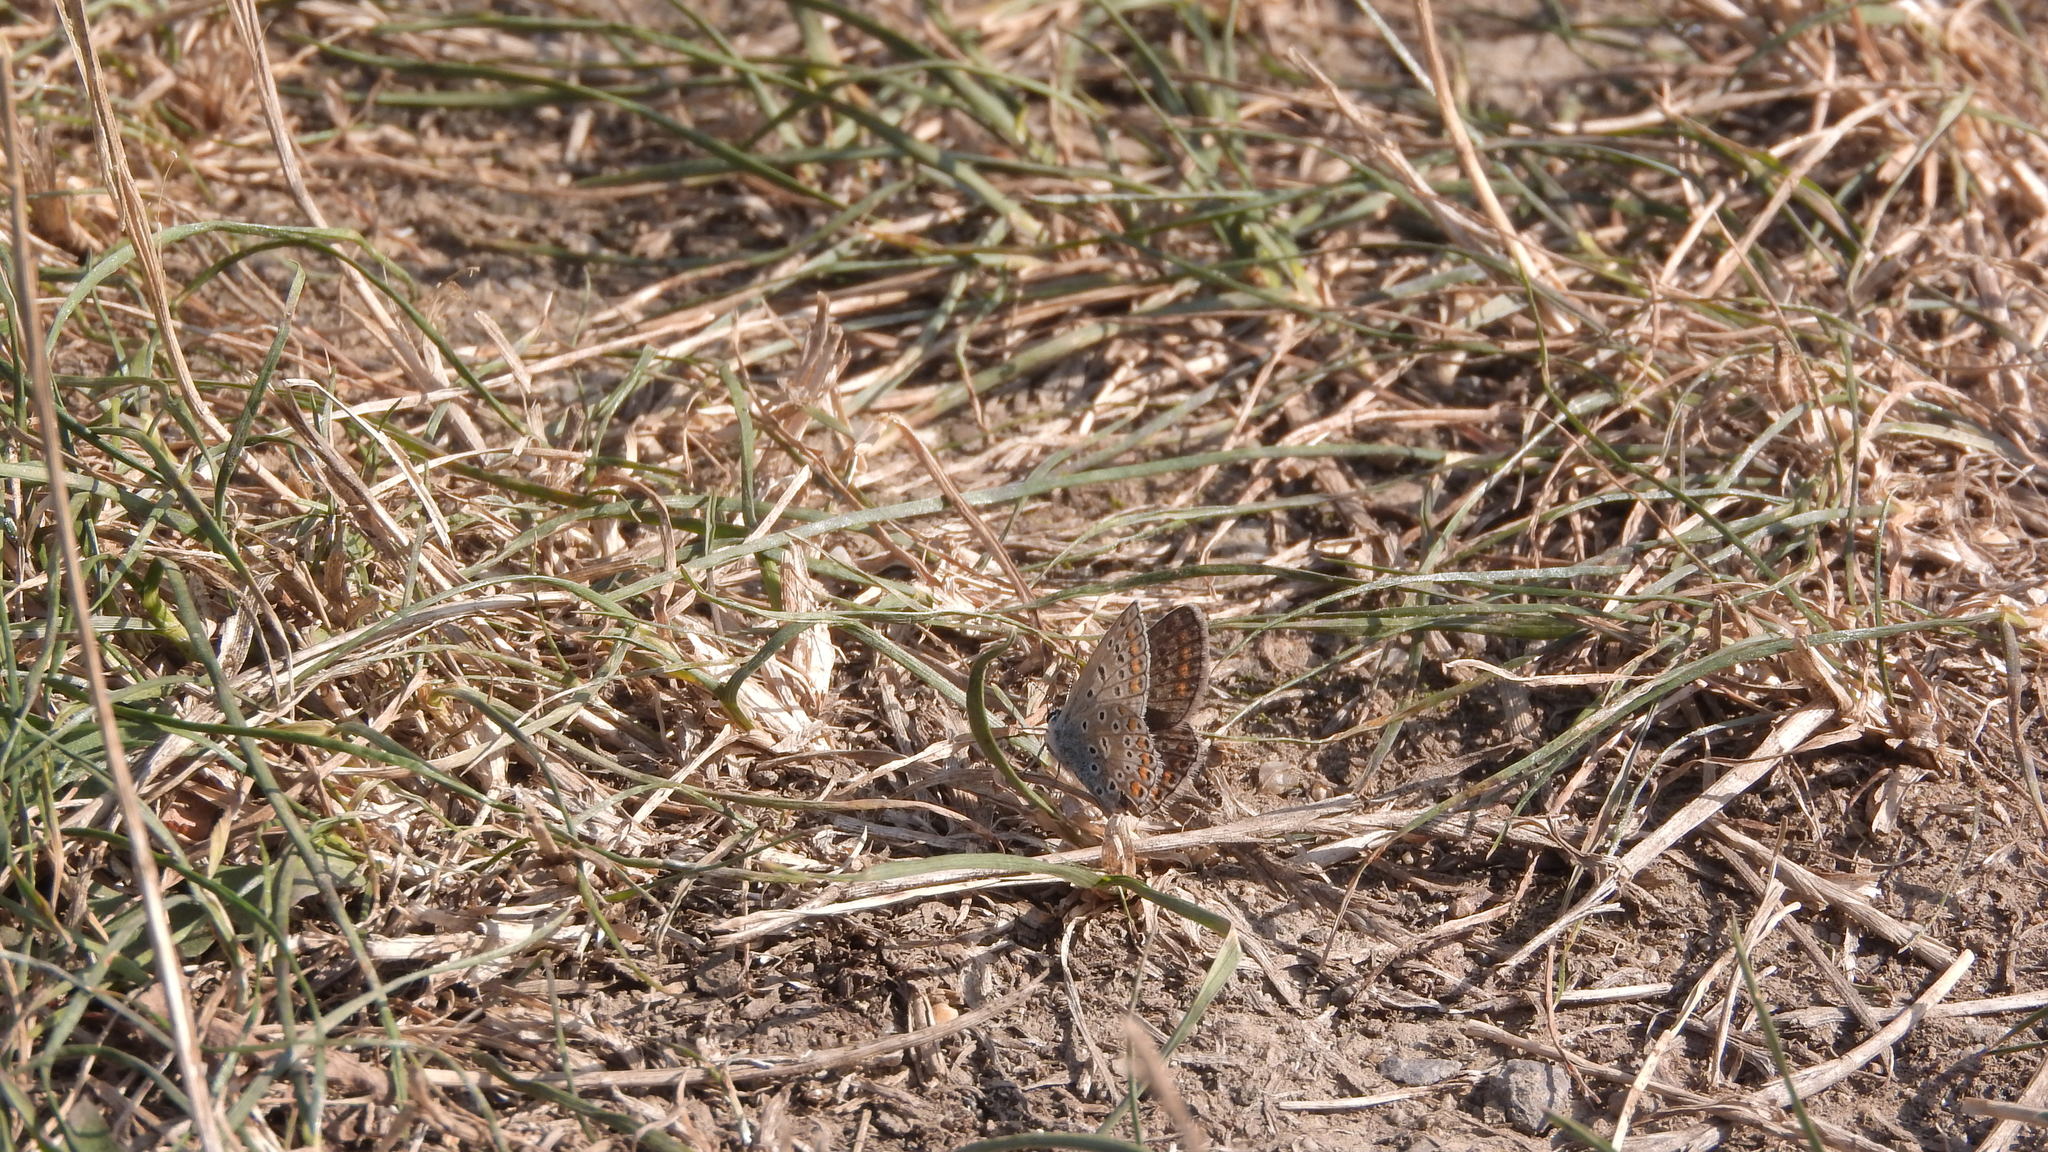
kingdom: Animalia
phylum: Arthropoda
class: Insecta
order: Lepidoptera
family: Lycaenidae
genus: Polyommatus
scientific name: Polyommatus icarus
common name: Common blue
